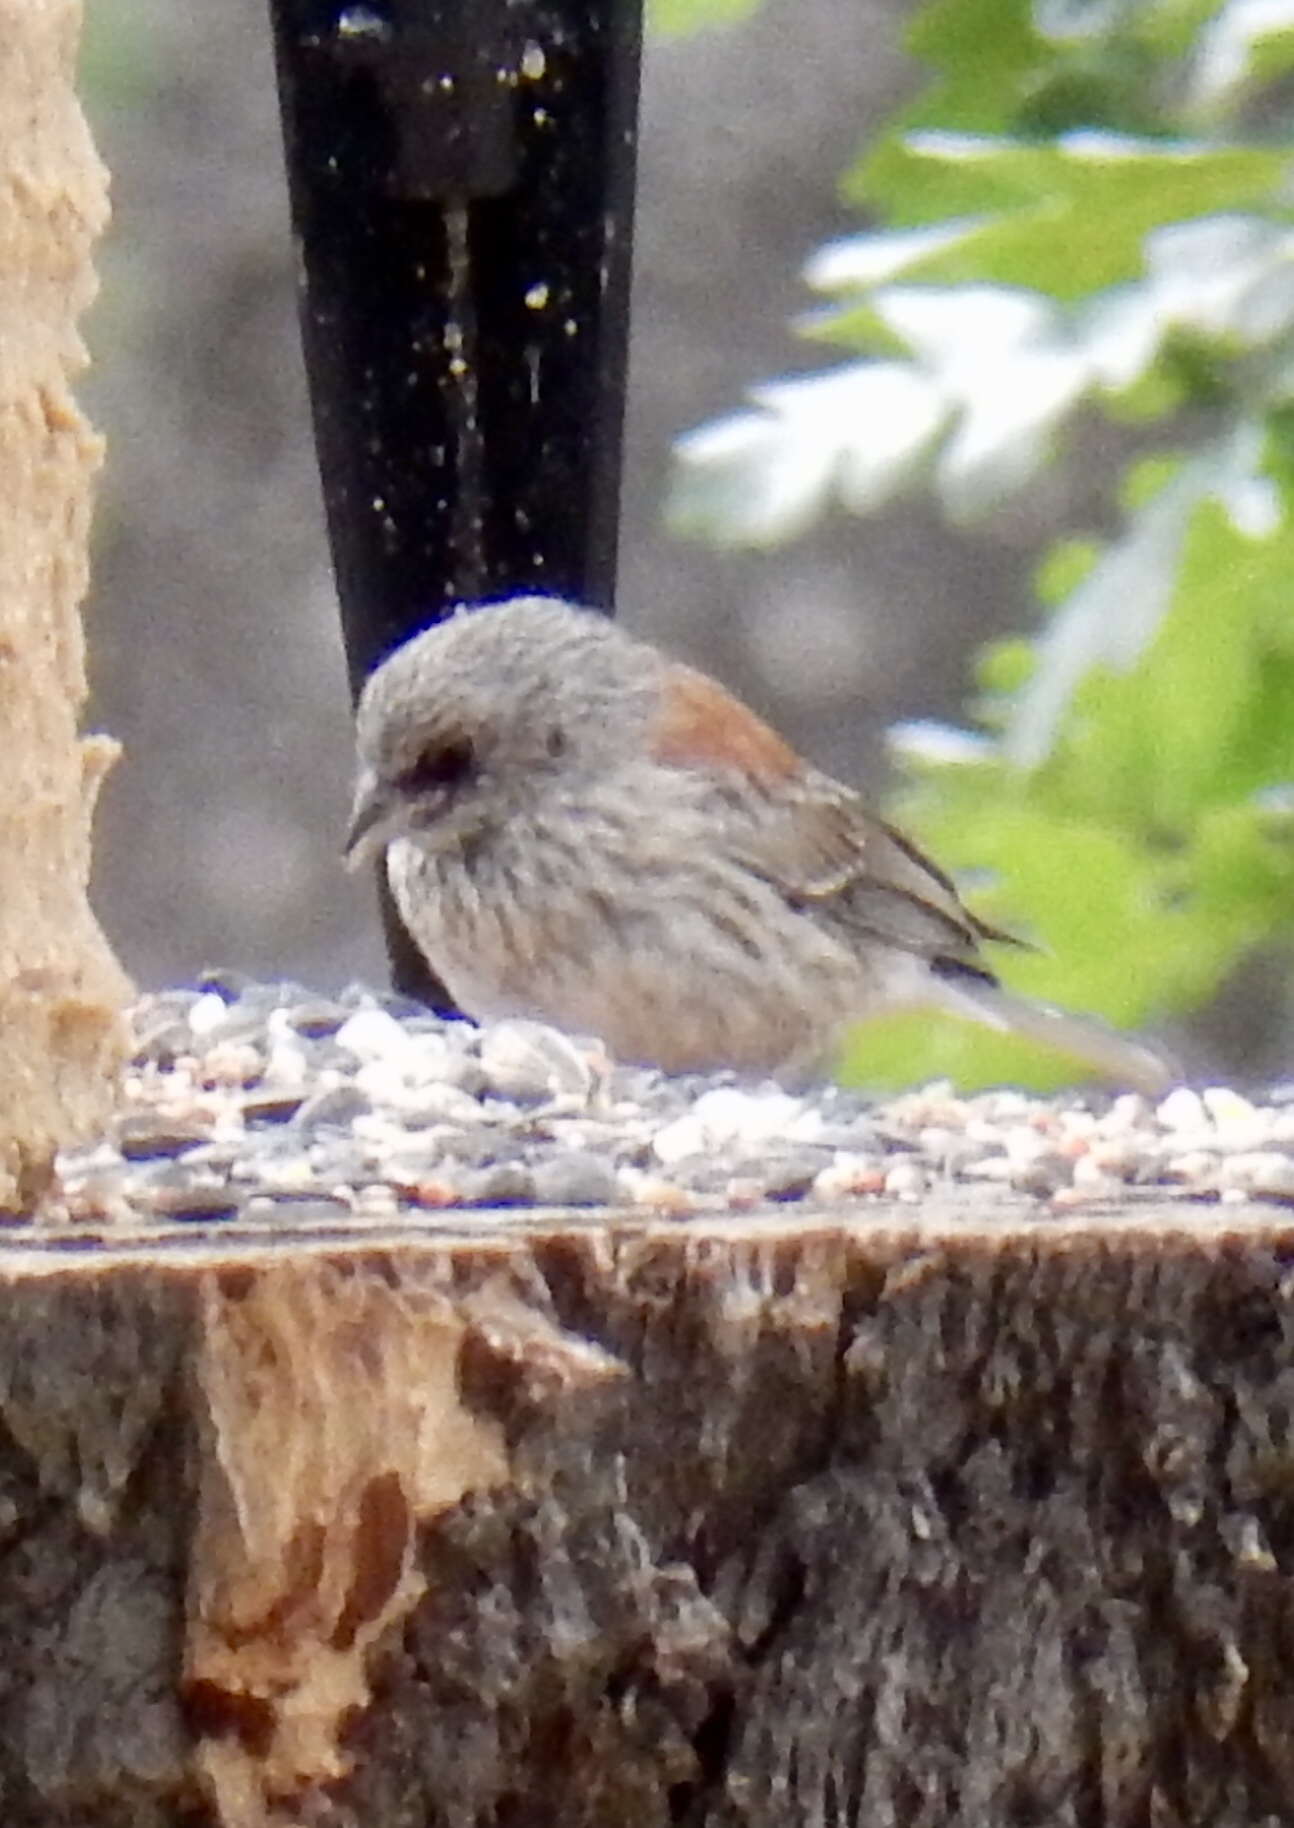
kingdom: Animalia
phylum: Chordata
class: Aves
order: Passeriformes
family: Passerellidae
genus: Junco
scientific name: Junco hyemalis
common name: Dark-eyed junco
